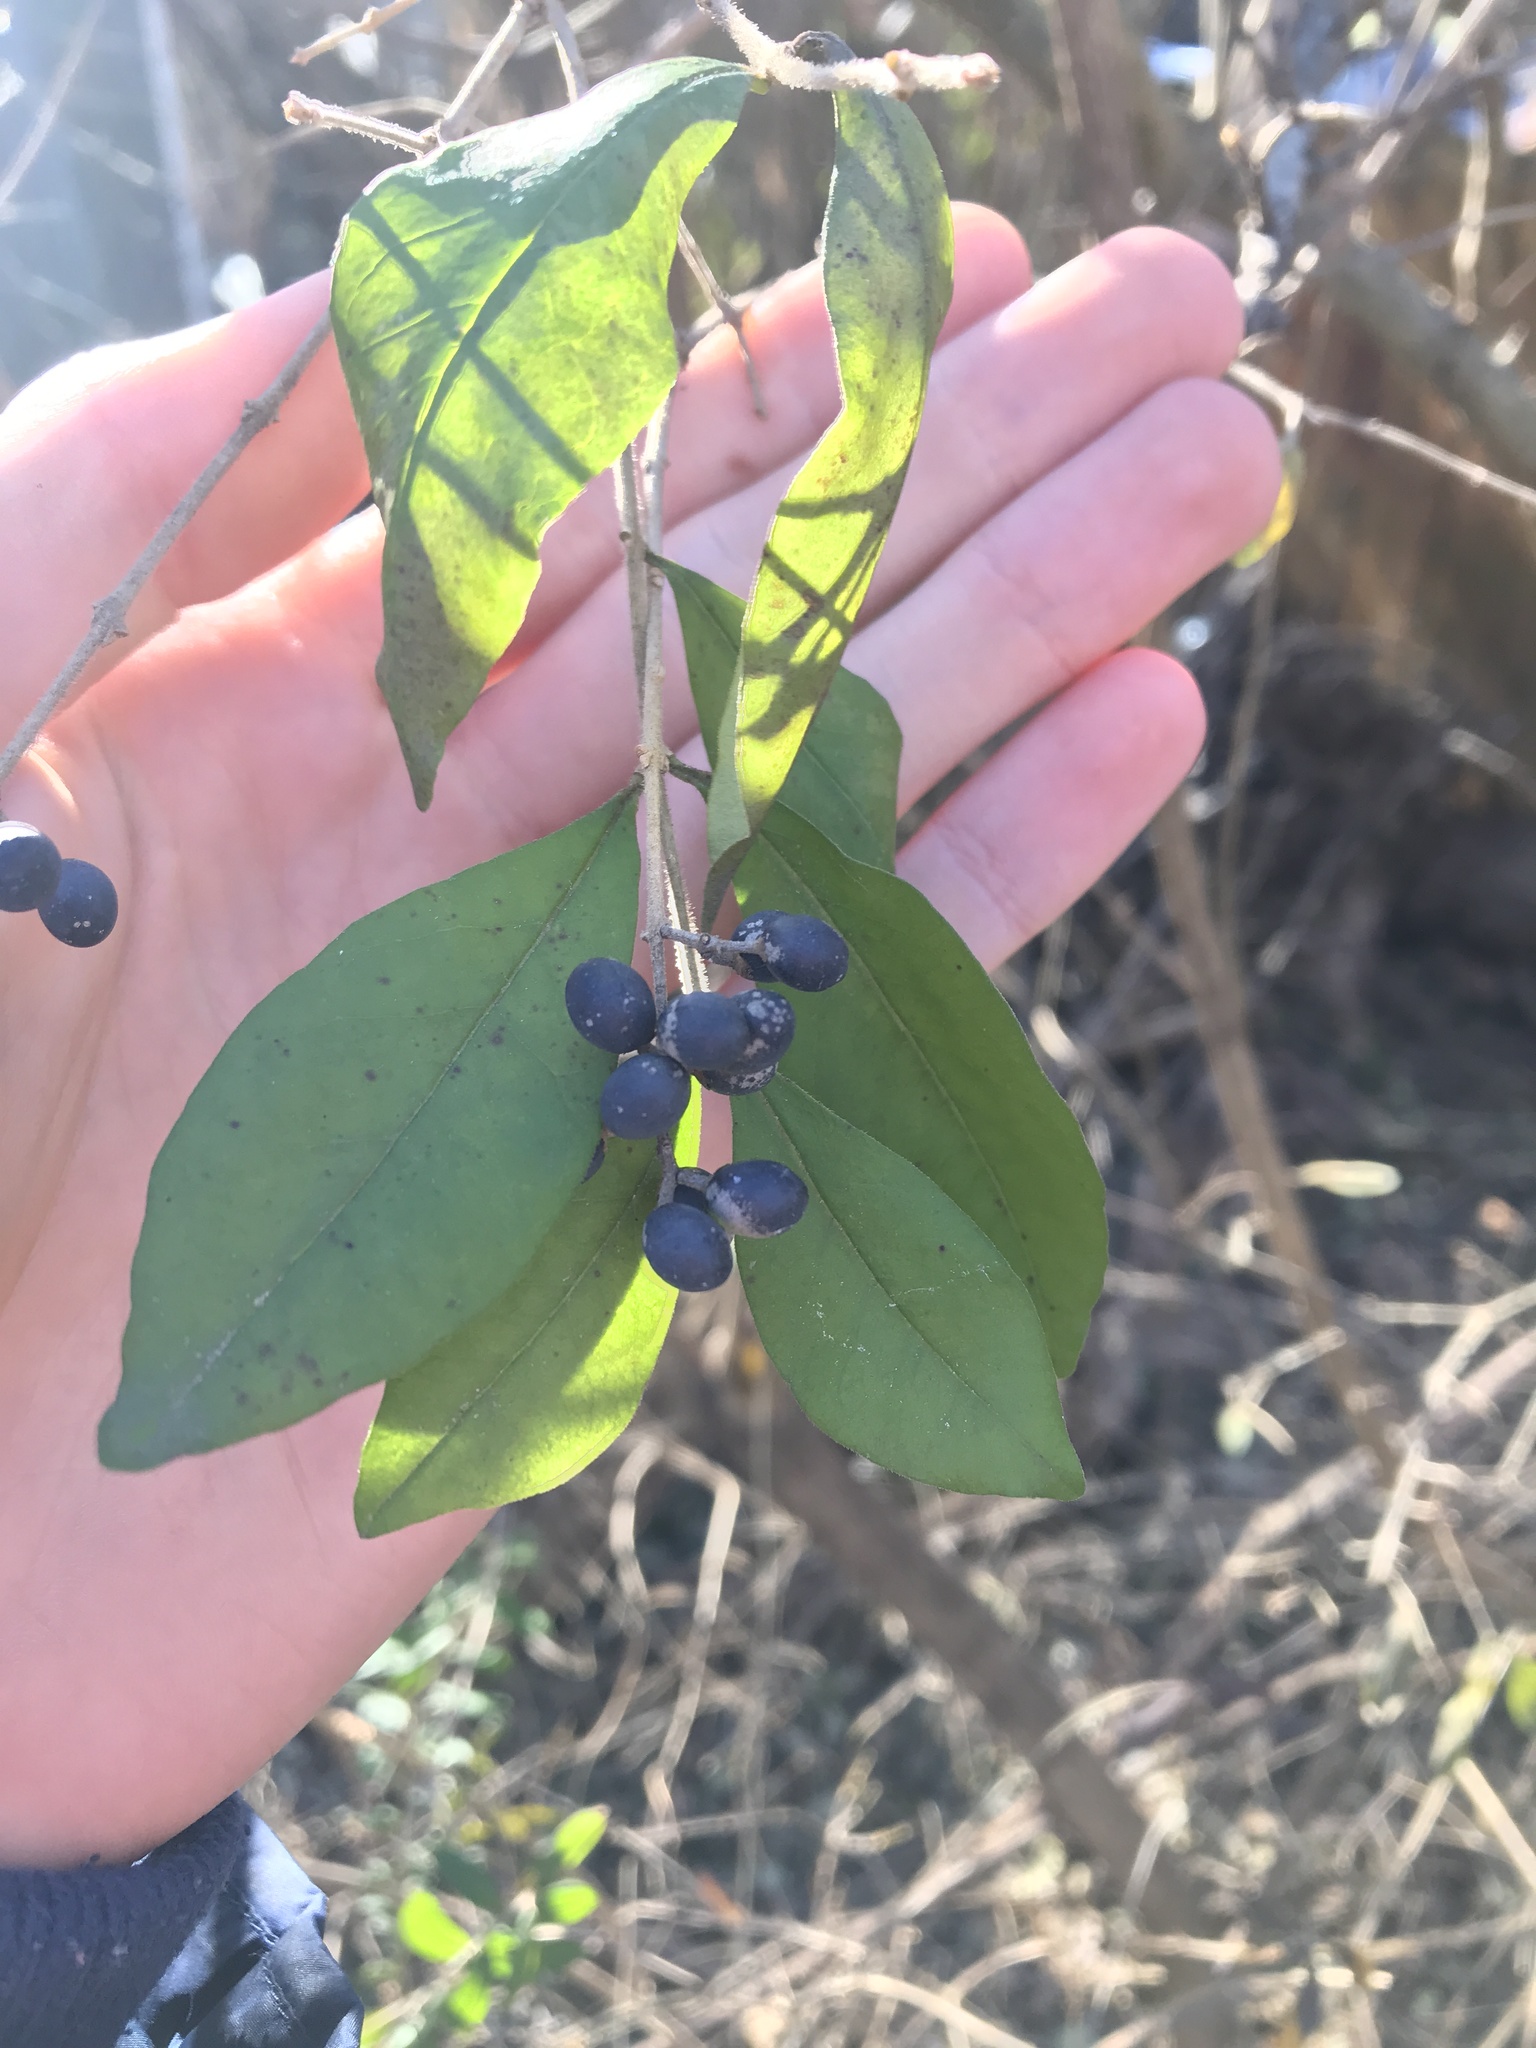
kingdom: Plantae
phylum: Tracheophyta
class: Magnoliopsida
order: Lamiales
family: Oleaceae
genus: Ligustrum
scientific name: Ligustrum obtusifolium
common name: Border privet
